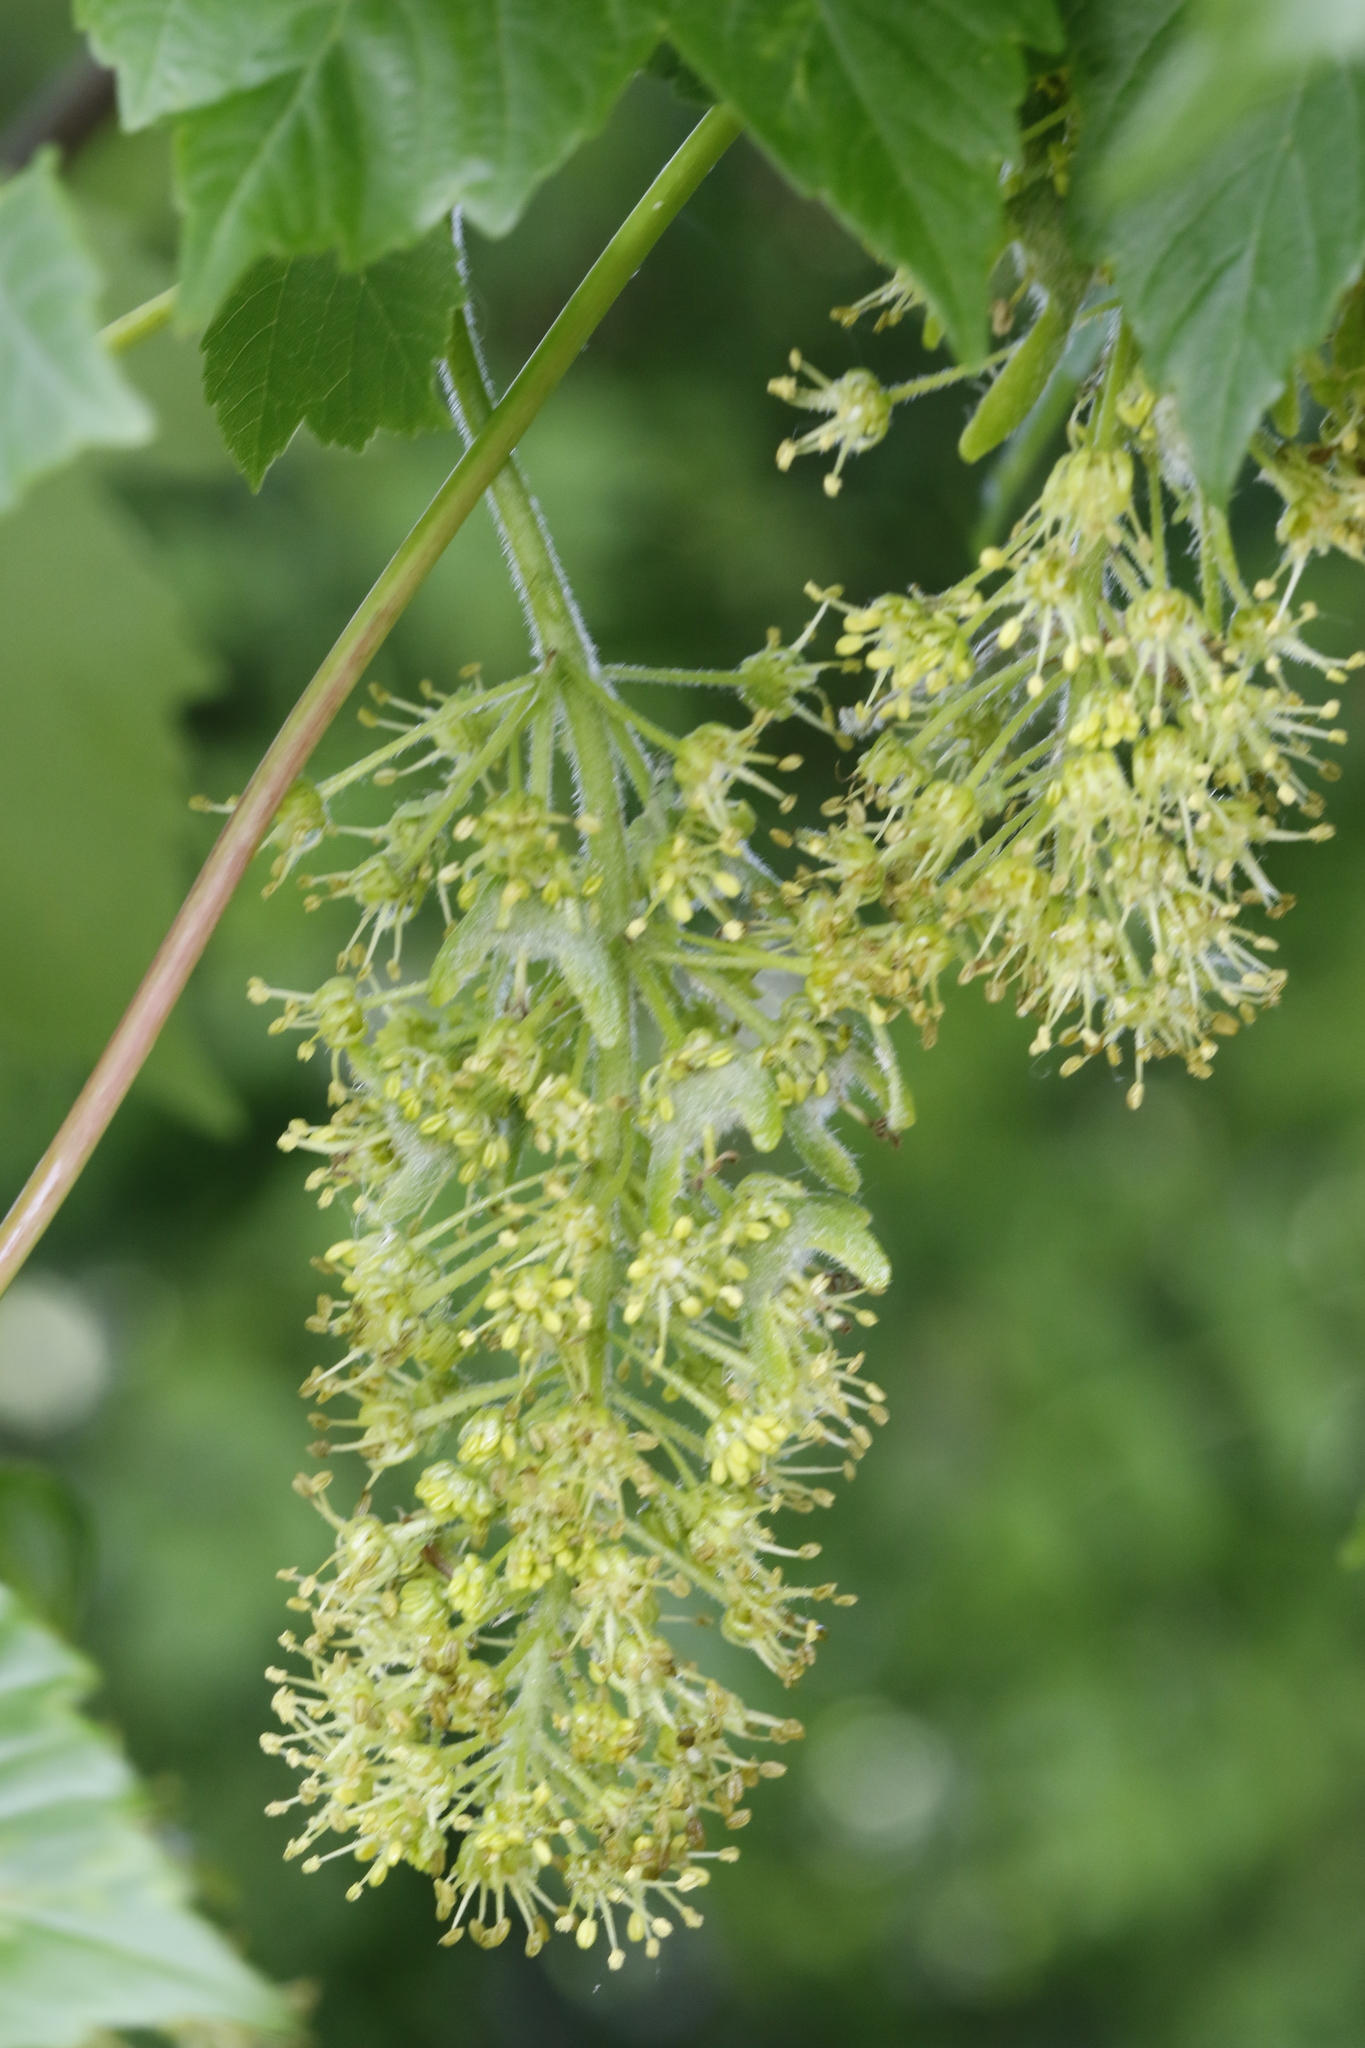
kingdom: Plantae
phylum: Tracheophyta
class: Magnoliopsida
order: Sapindales
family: Sapindaceae
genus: Acer
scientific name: Acer pseudoplatanus
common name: Sycamore
